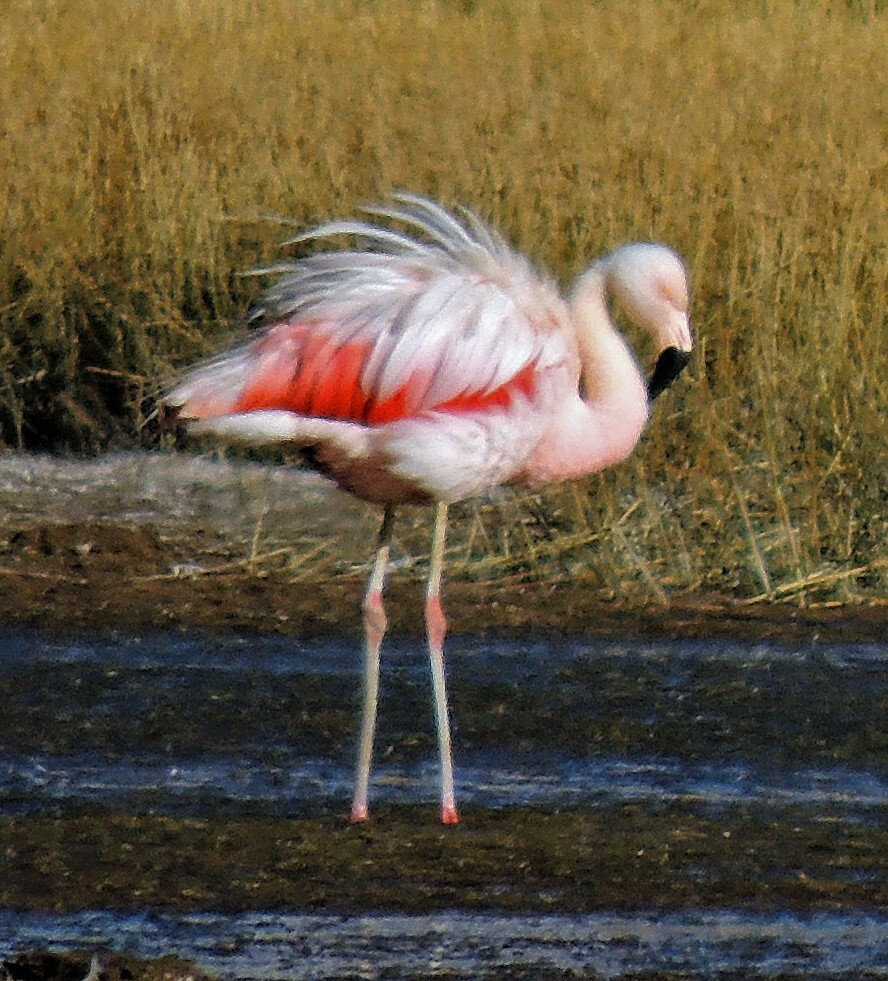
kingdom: Animalia
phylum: Chordata
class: Aves
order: Phoenicopteriformes
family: Phoenicopteridae
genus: Phoenicopterus
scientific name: Phoenicopterus chilensis
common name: Chilean flamingo
